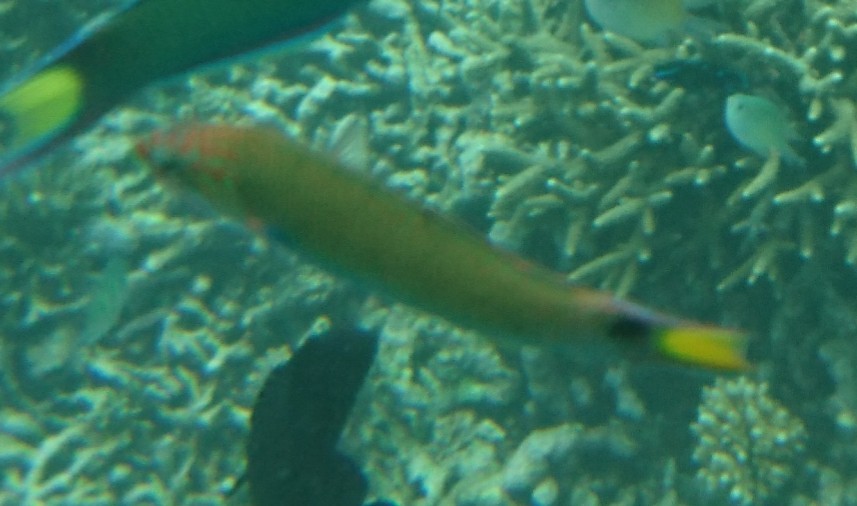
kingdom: Animalia
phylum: Chordata
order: Perciformes
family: Labridae
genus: Thalassoma
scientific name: Thalassoma lunare
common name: Blue wrasse
